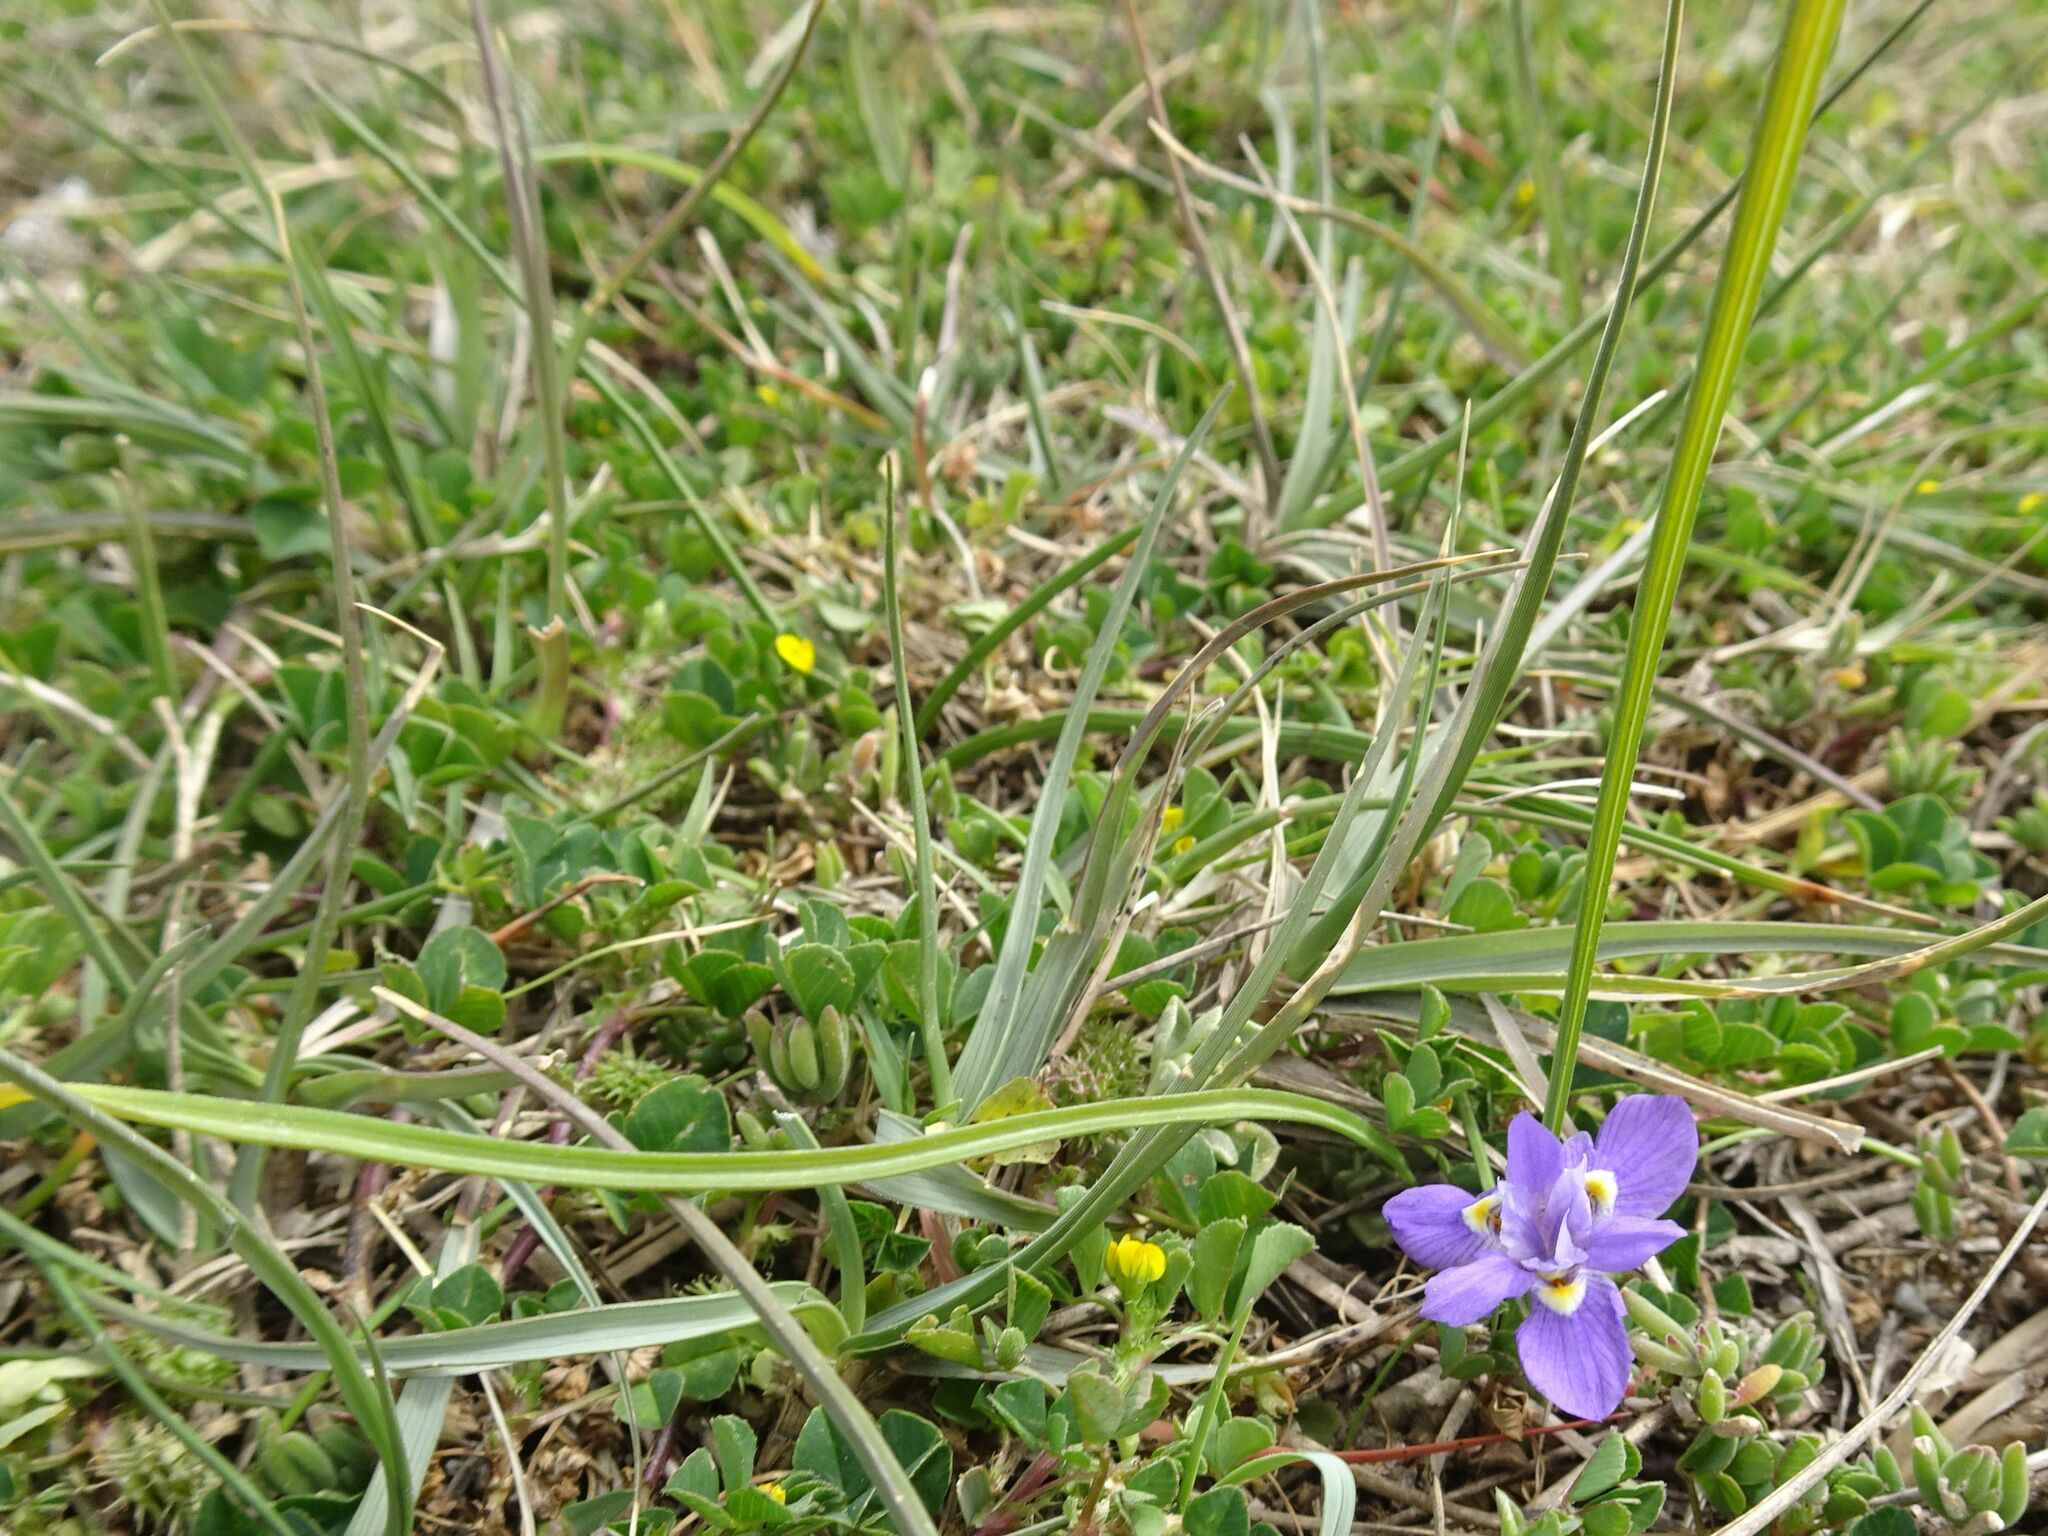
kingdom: Plantae
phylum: Tracheophyta
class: Liliopsida
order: Asparagales
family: Iridaceae
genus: Moraea
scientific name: Moraea setifolia
